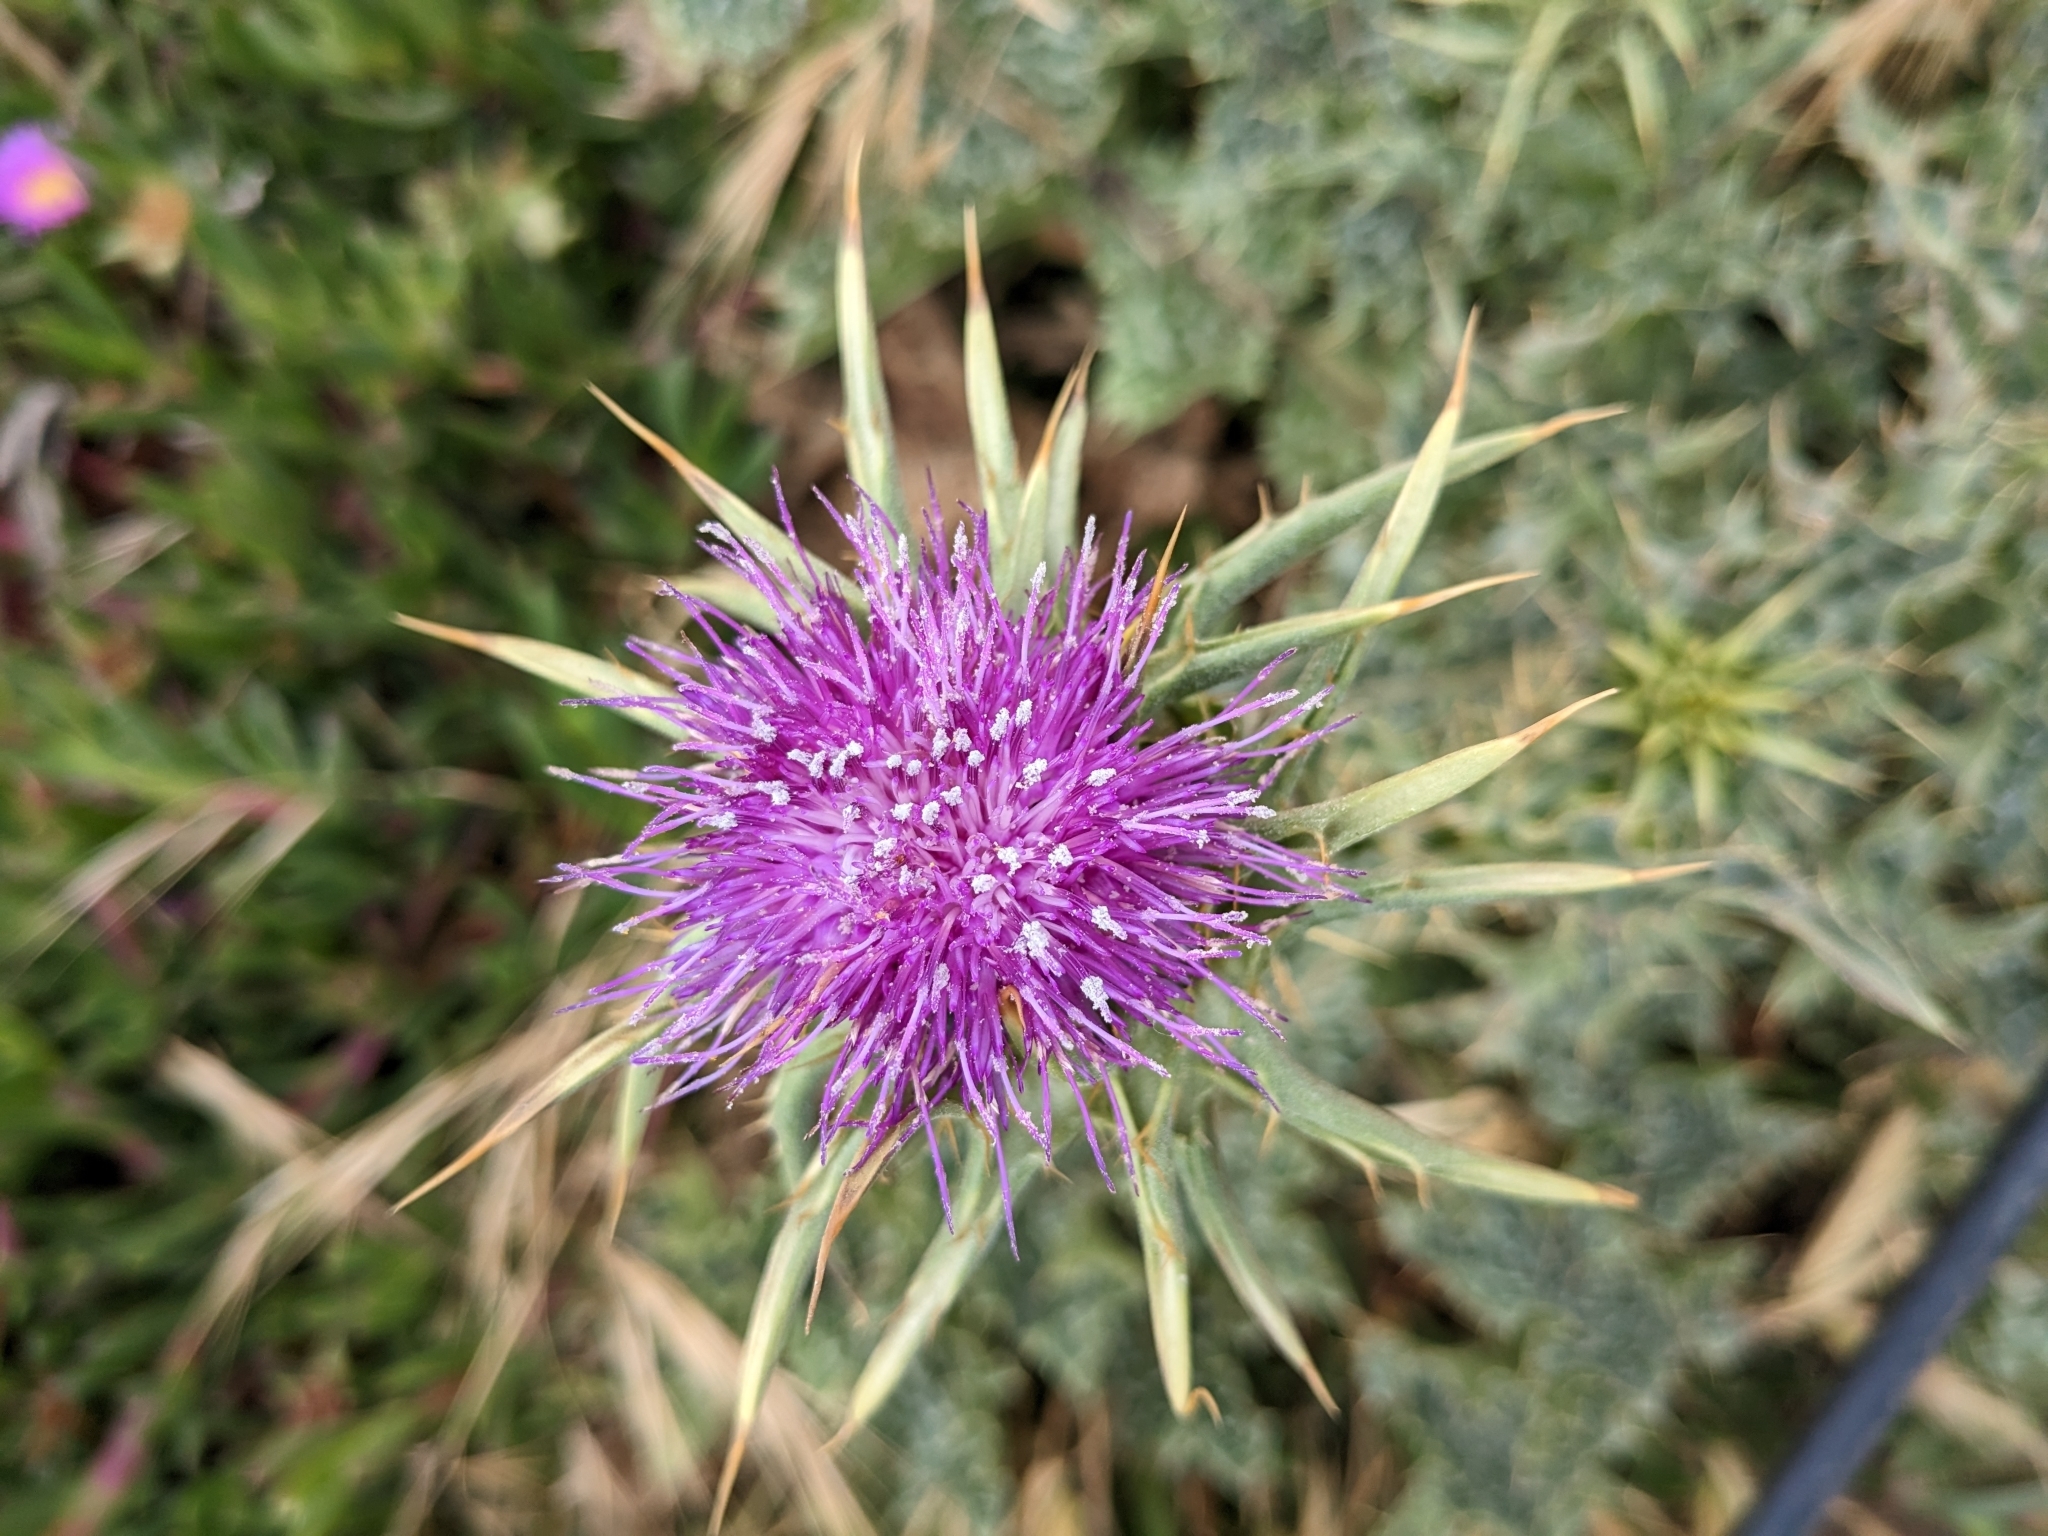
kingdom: Plantae
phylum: Tracheophyta
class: Magnoliopsida
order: Asterales
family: Asteraceae
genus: Silybum
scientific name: Silybum marianum
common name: Milk thistle
